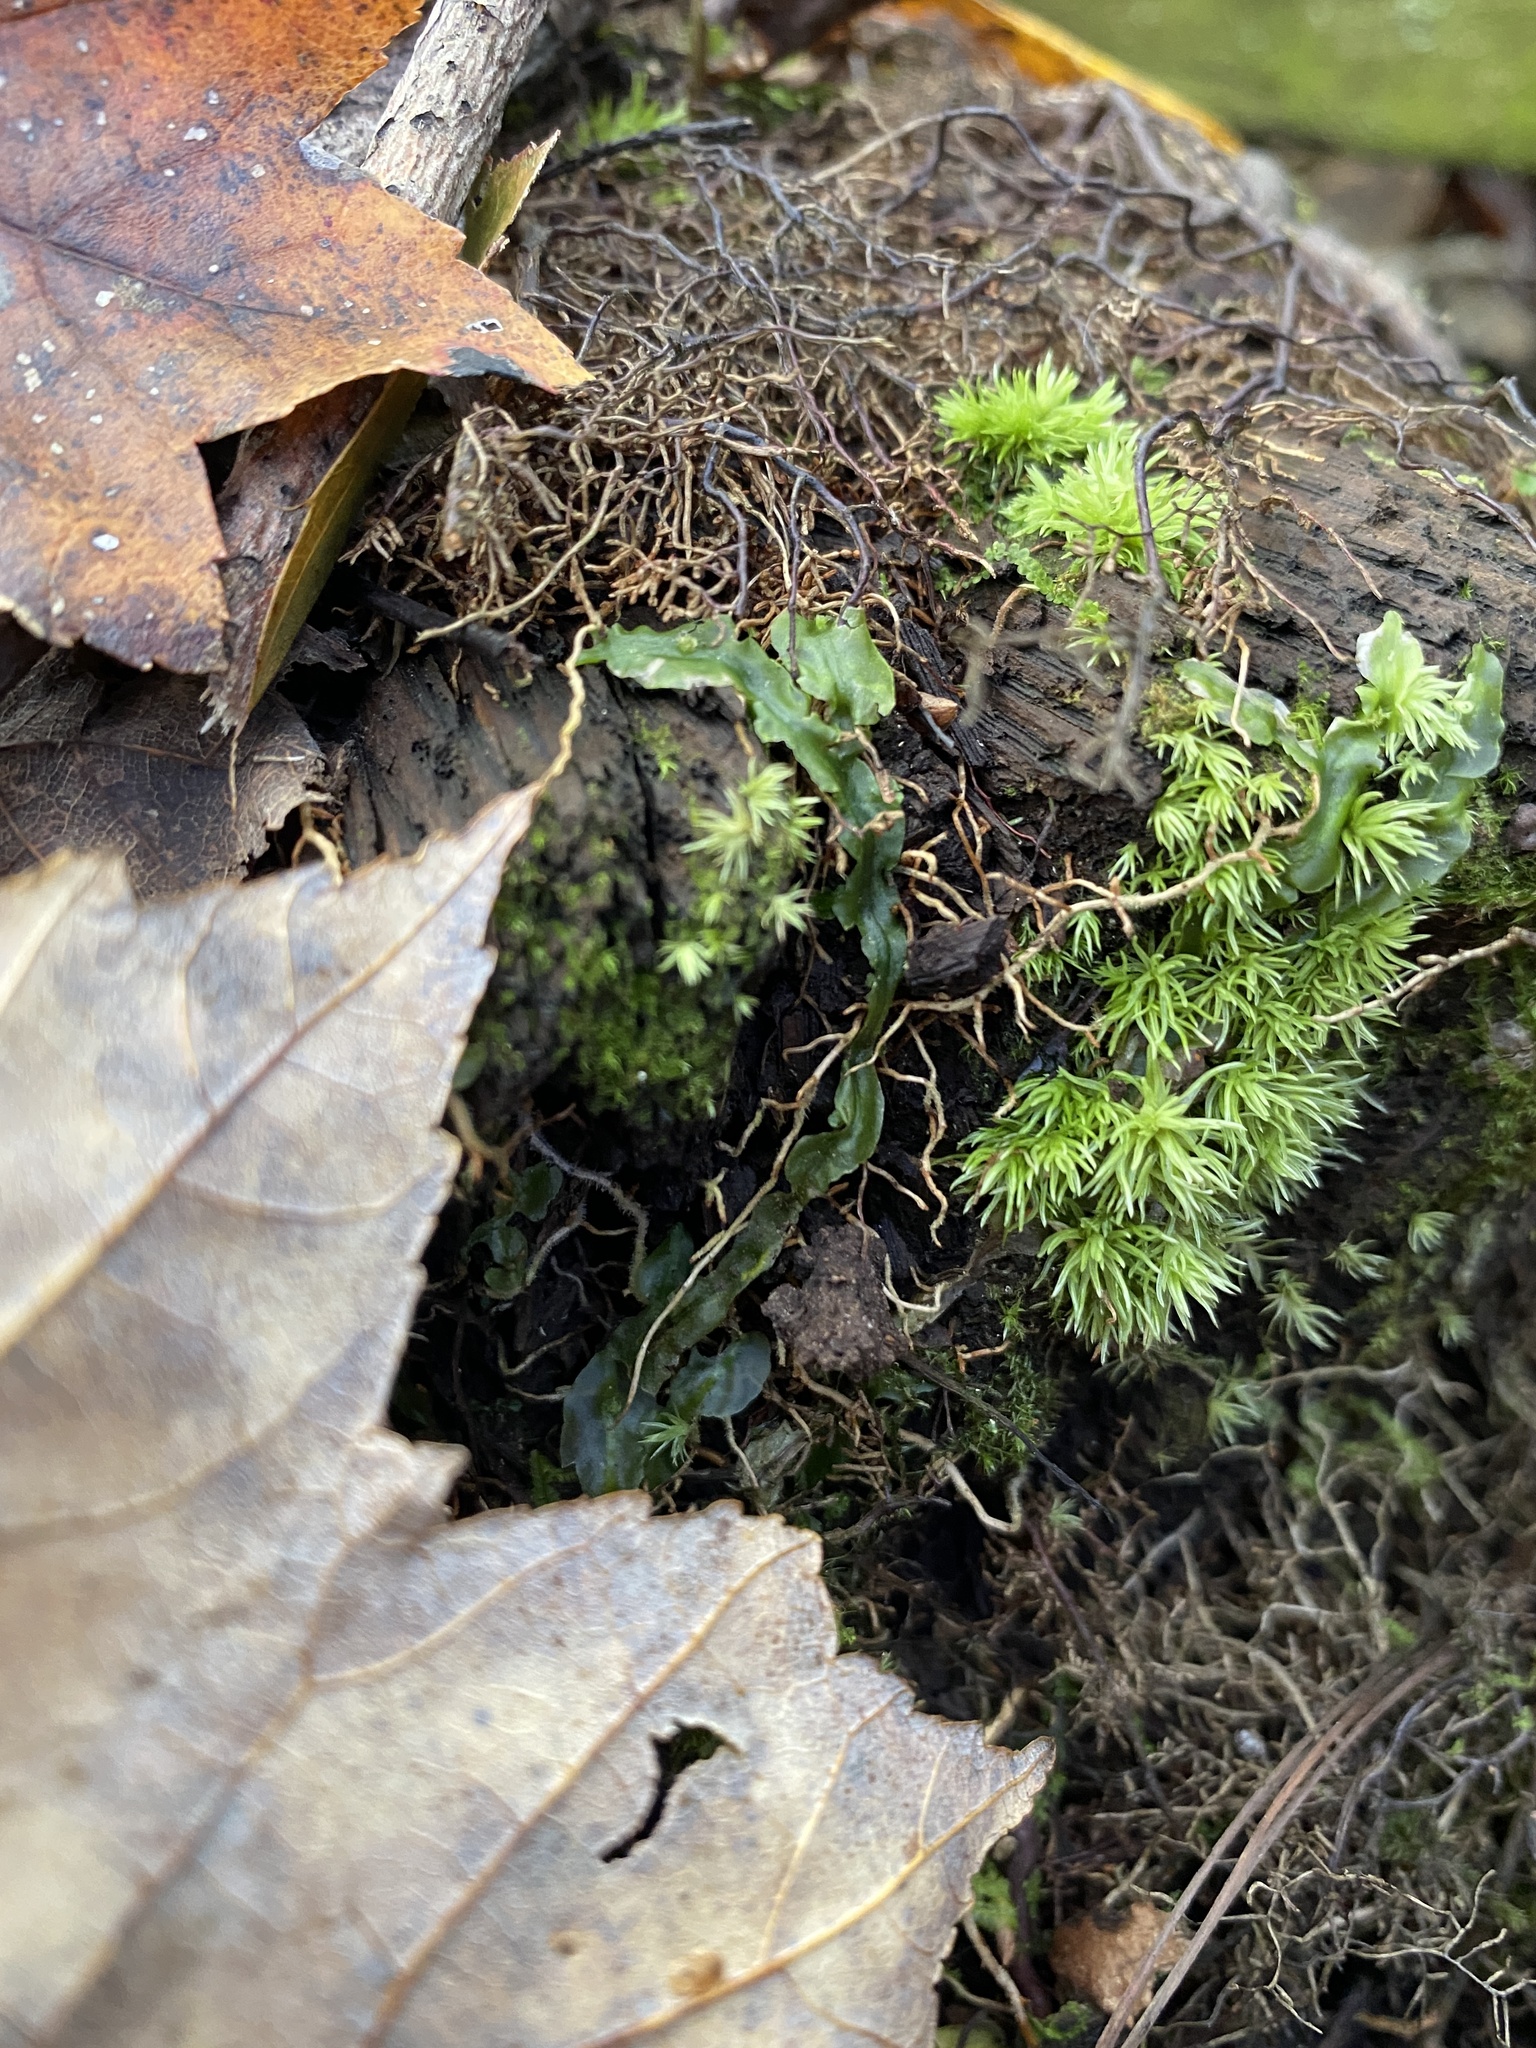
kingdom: Plantae
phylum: Marchantiophyta
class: Jungermanniopsida
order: Pallaviciniales
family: Pallaviciniaceae
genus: Pallavicinia
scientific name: Pallavicinia lyellii
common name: Veilwort
